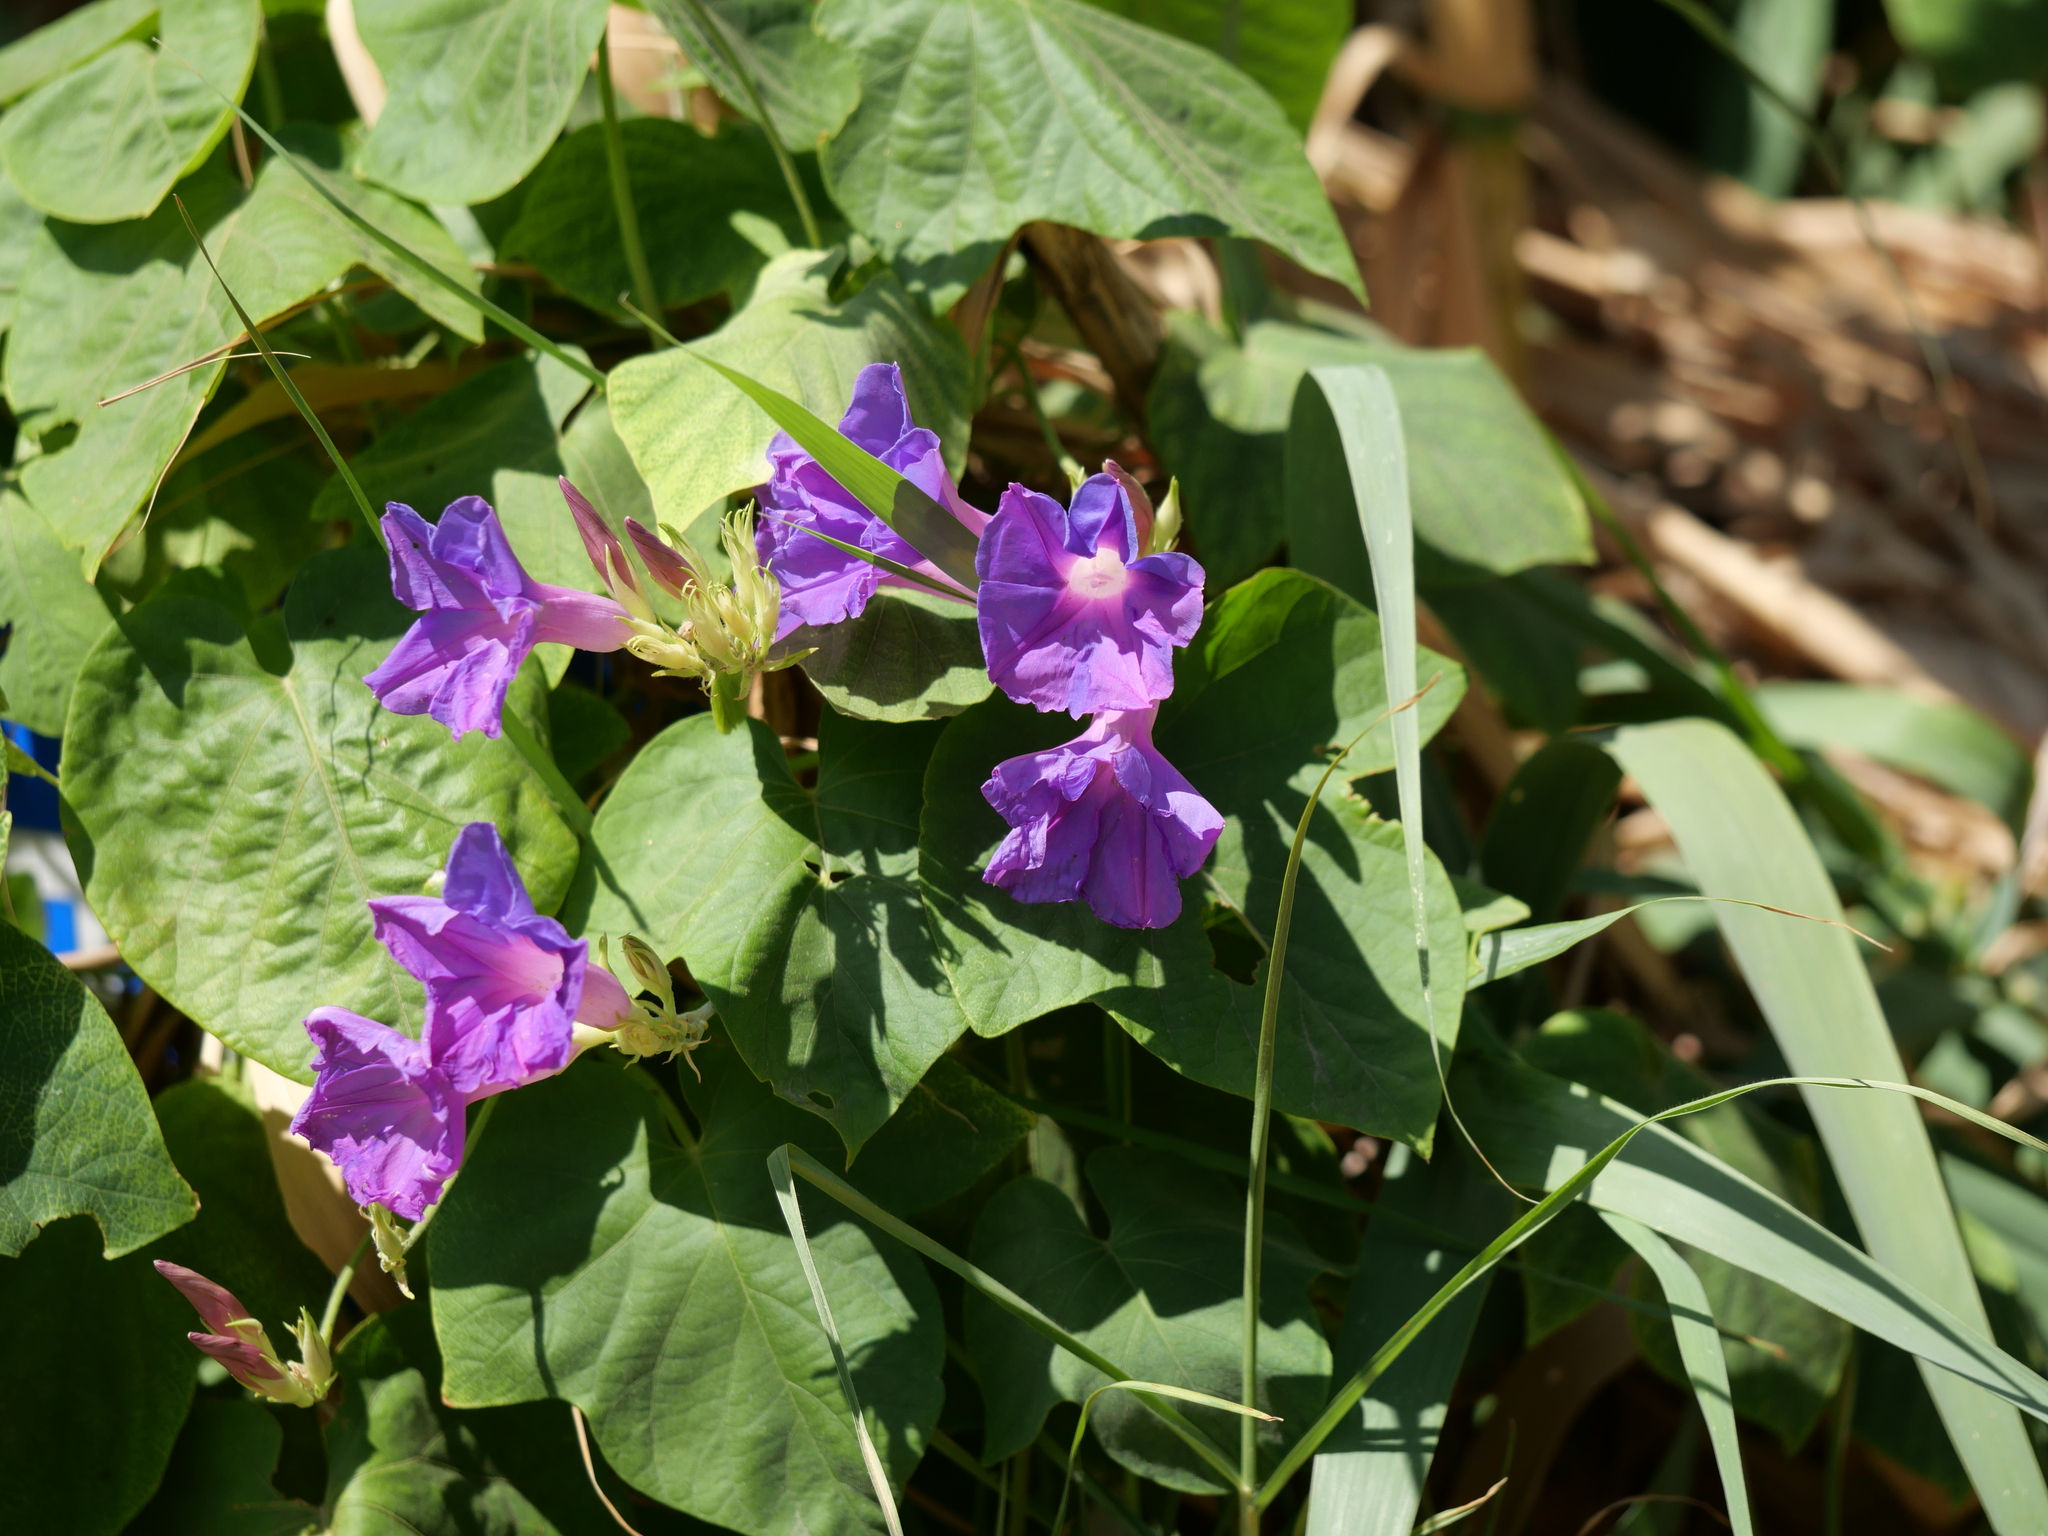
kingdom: Plantae
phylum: Tracheophyta
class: Magnoliopsida
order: Solanales
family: Convolvulaceae
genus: Ipomoea
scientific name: Ipomoea indica
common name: Blue dawnflower
